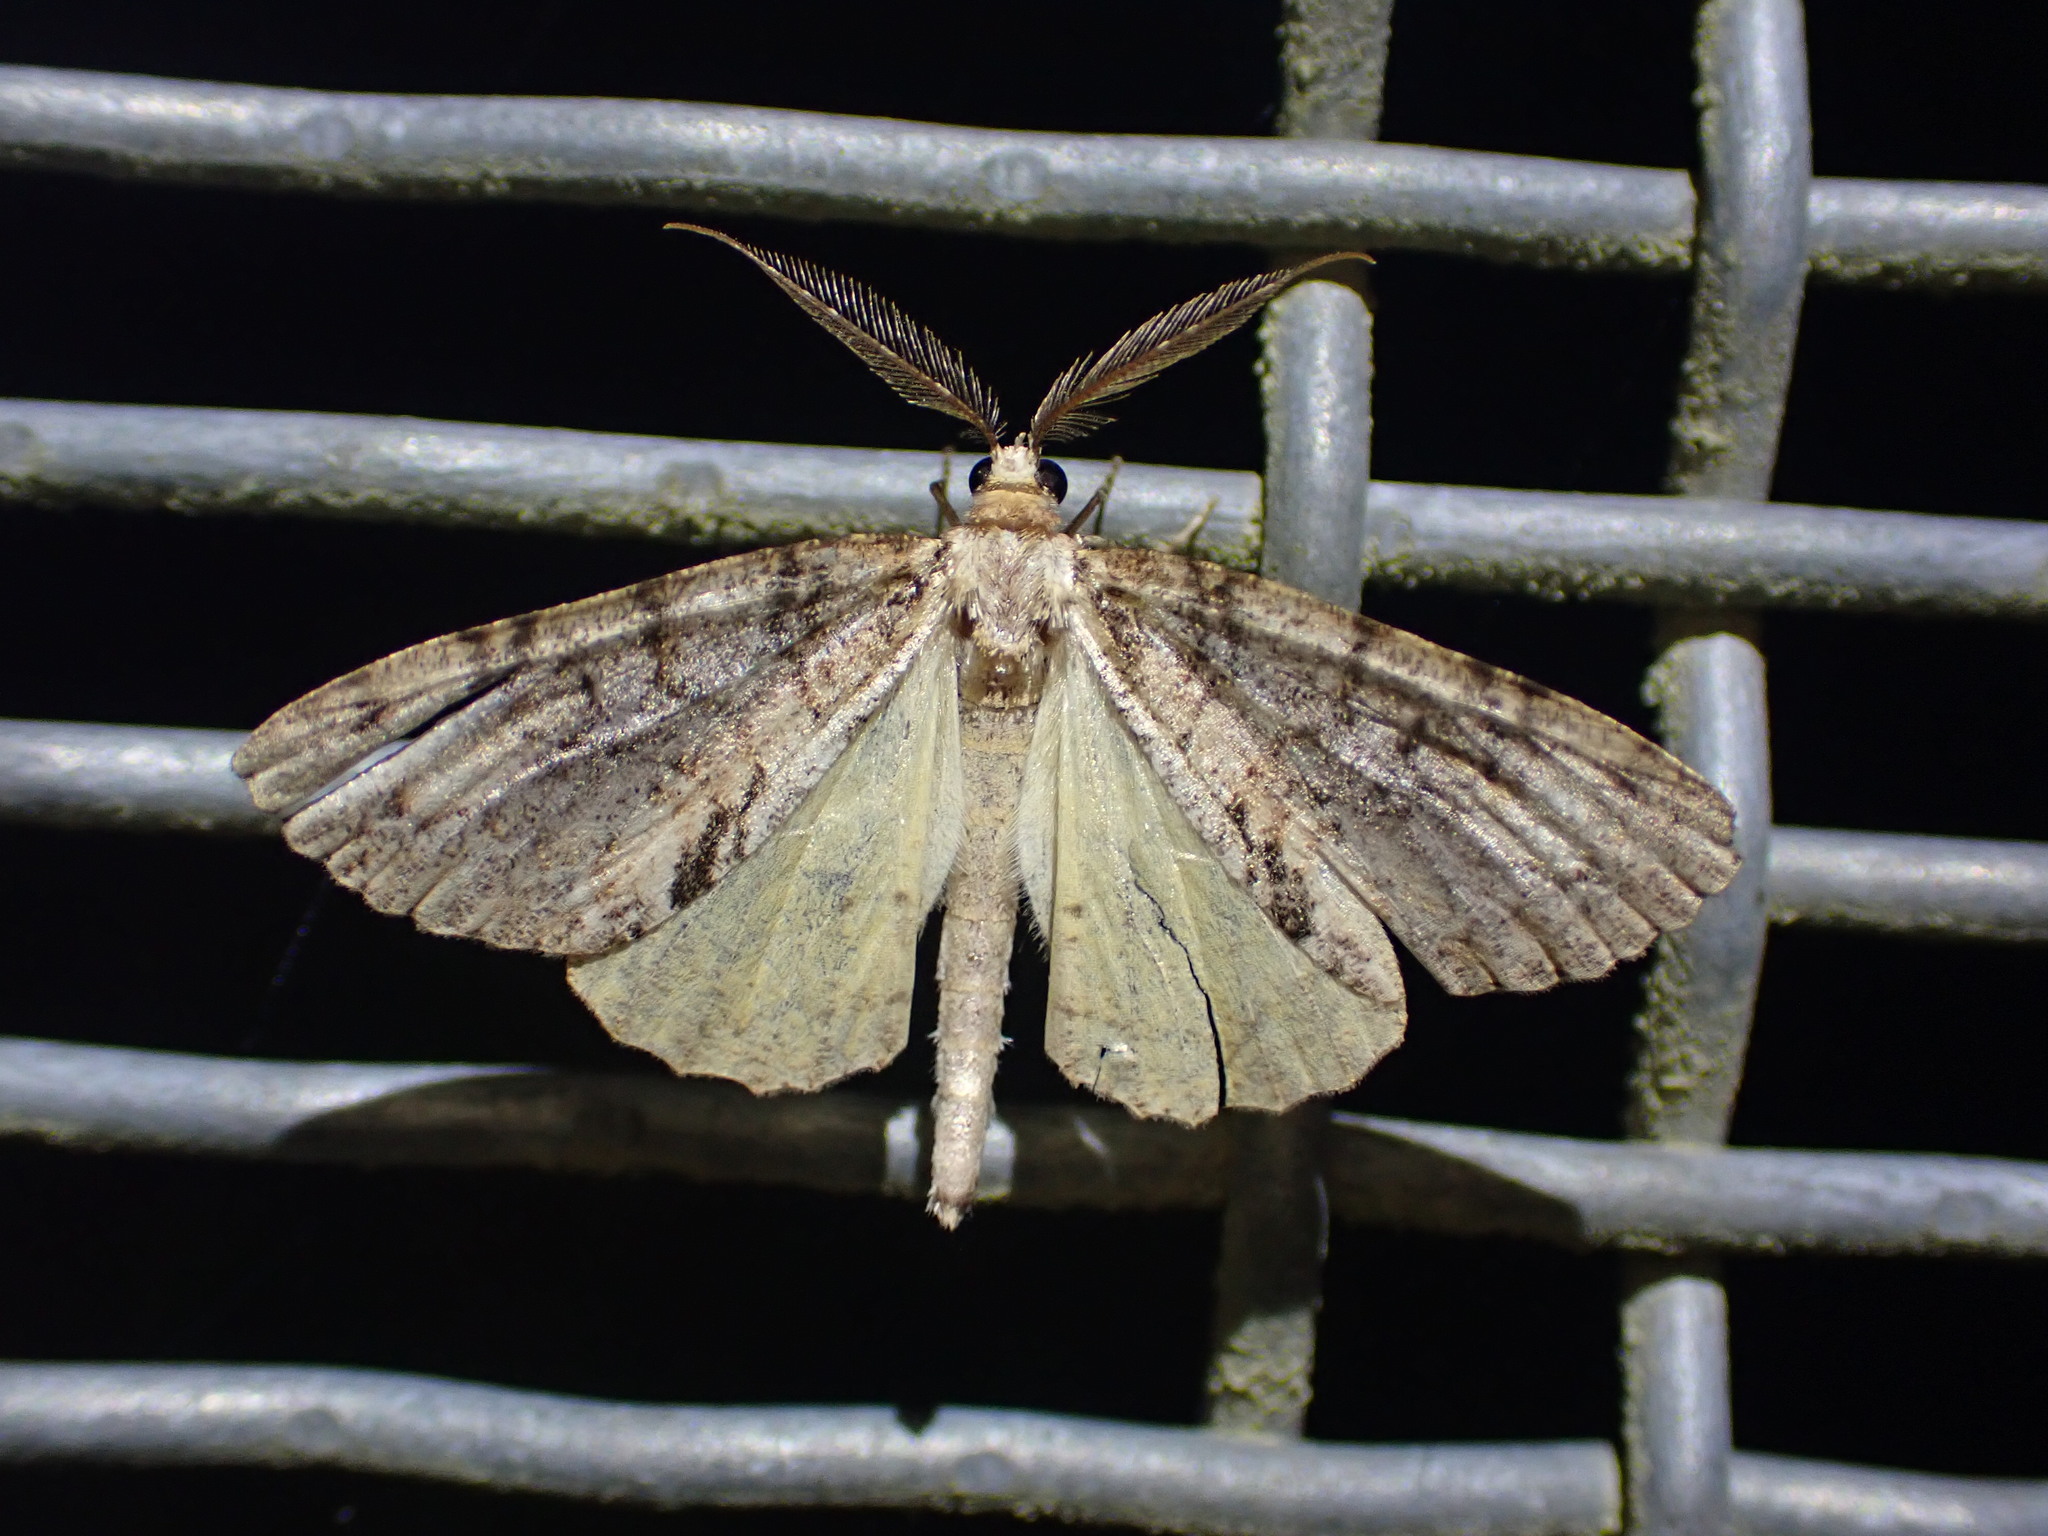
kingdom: Animalia
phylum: Arthropoda
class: Insecta
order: Lepidoptera
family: Geometridae
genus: Pseudocoremia
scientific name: Pseudocoremia suavis
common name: Common forest looper
